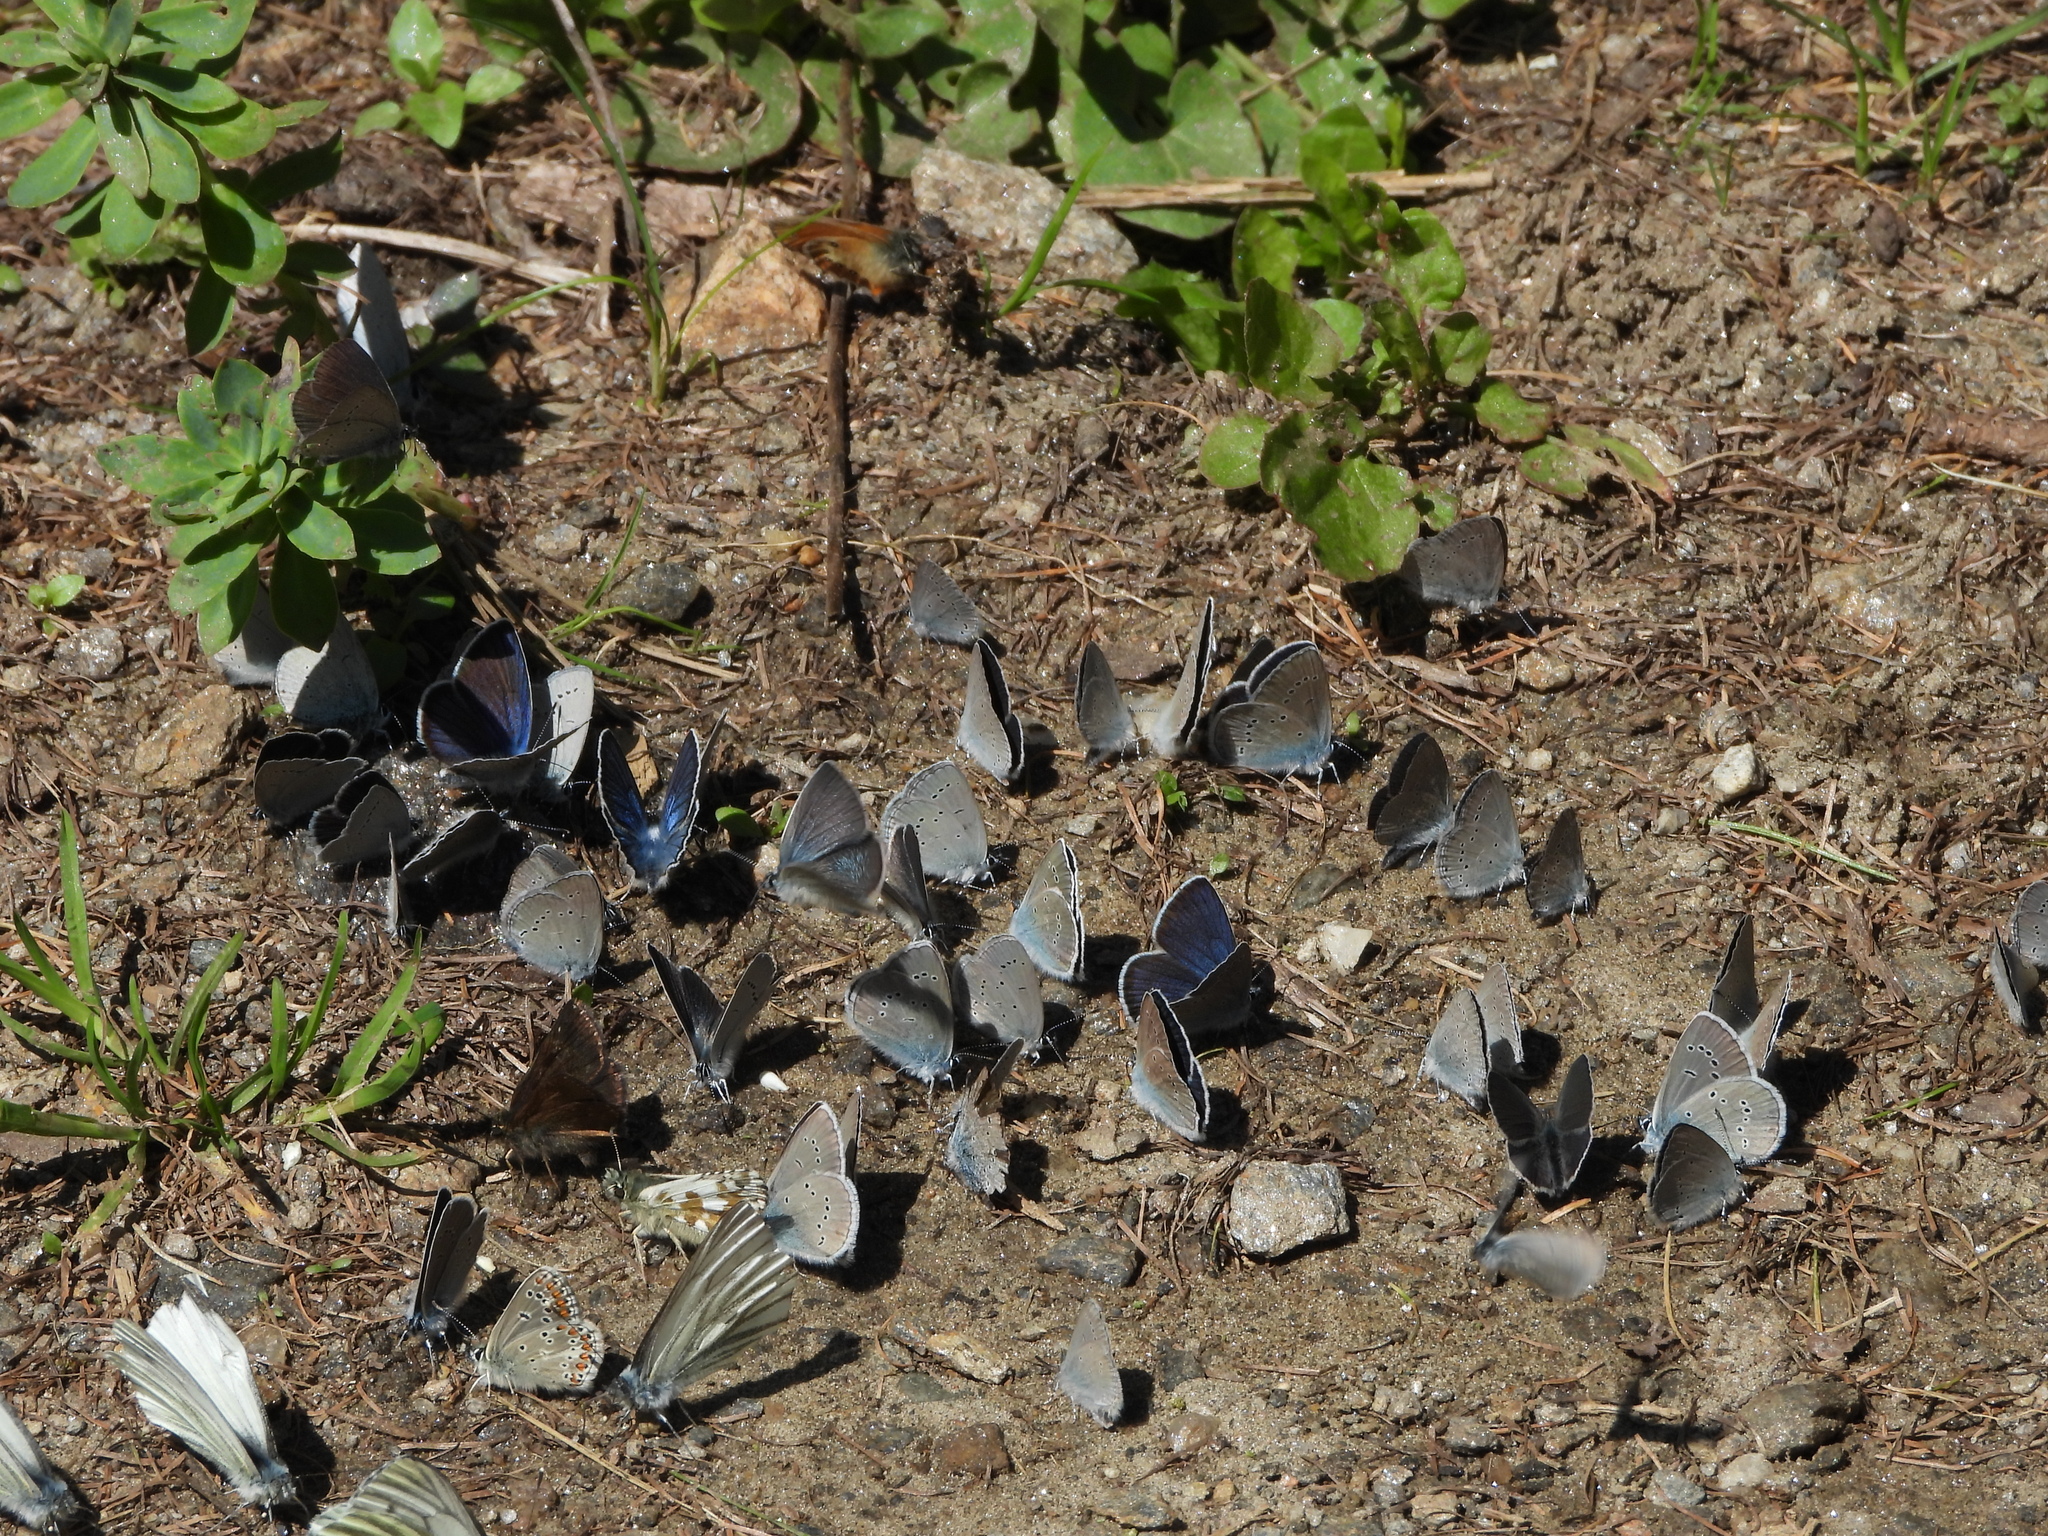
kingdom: Animalia
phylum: Arthropoda
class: Insecta
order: Lepidoptera
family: Lycaenidae
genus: Aricia
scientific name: Aricia artaxerxes
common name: Northern brown argus
